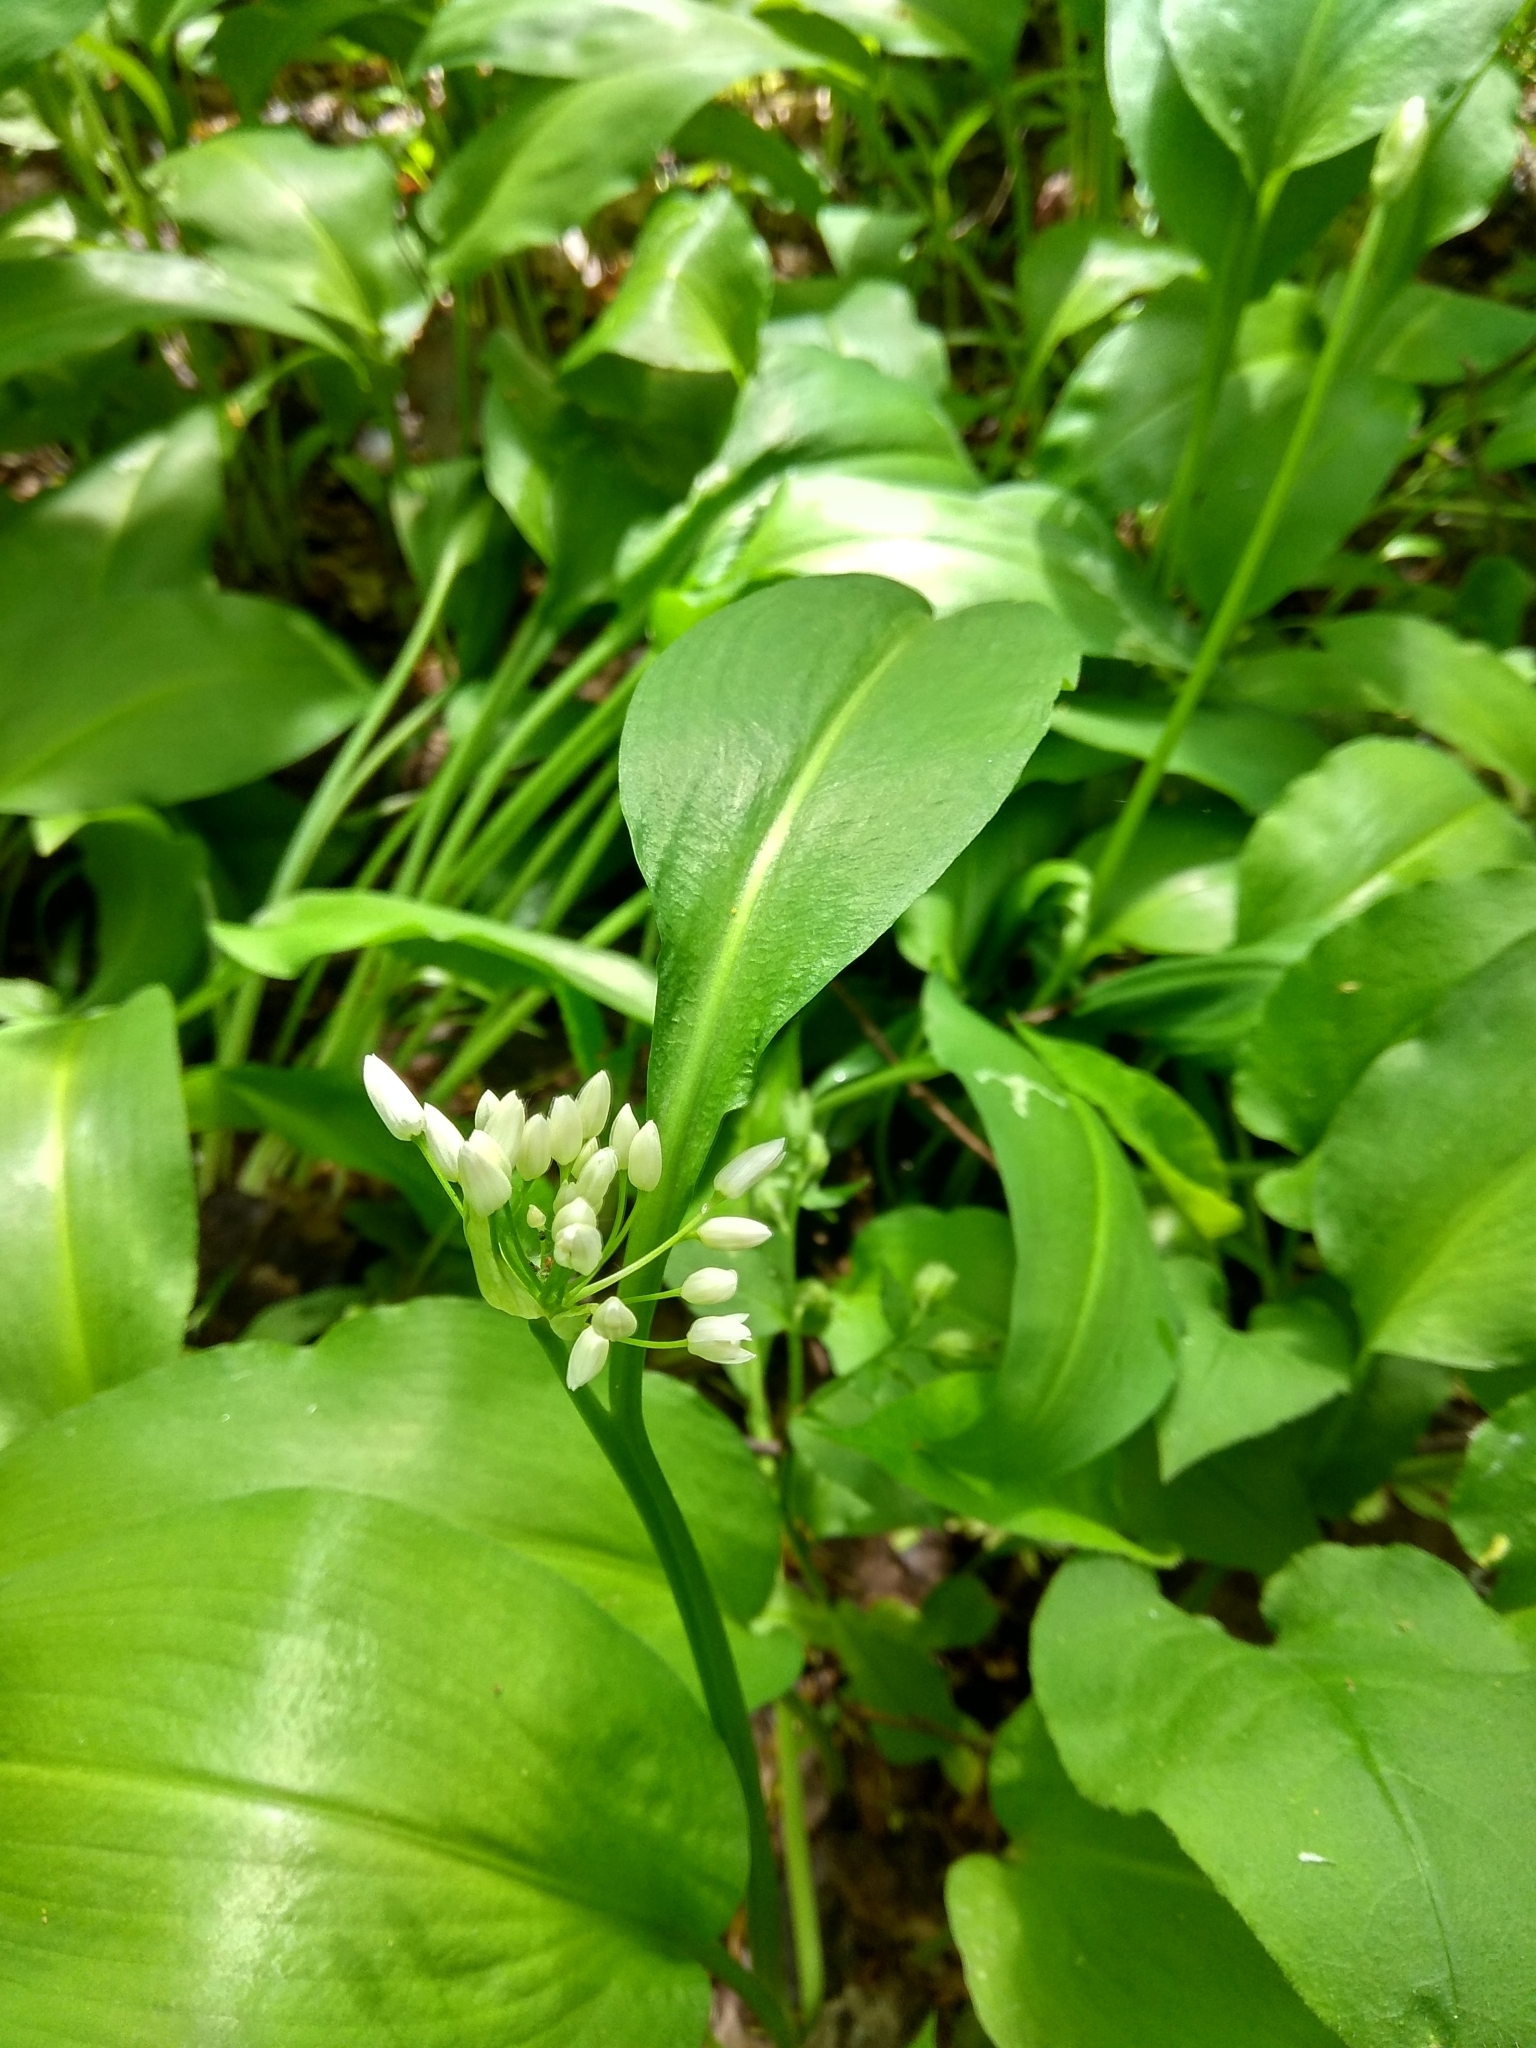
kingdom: Plantae
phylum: Tracheophyta
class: Liliopsida
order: Asparagales
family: Amaryllidaceae
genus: Allium
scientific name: Allium ursinum
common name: Ramsons
